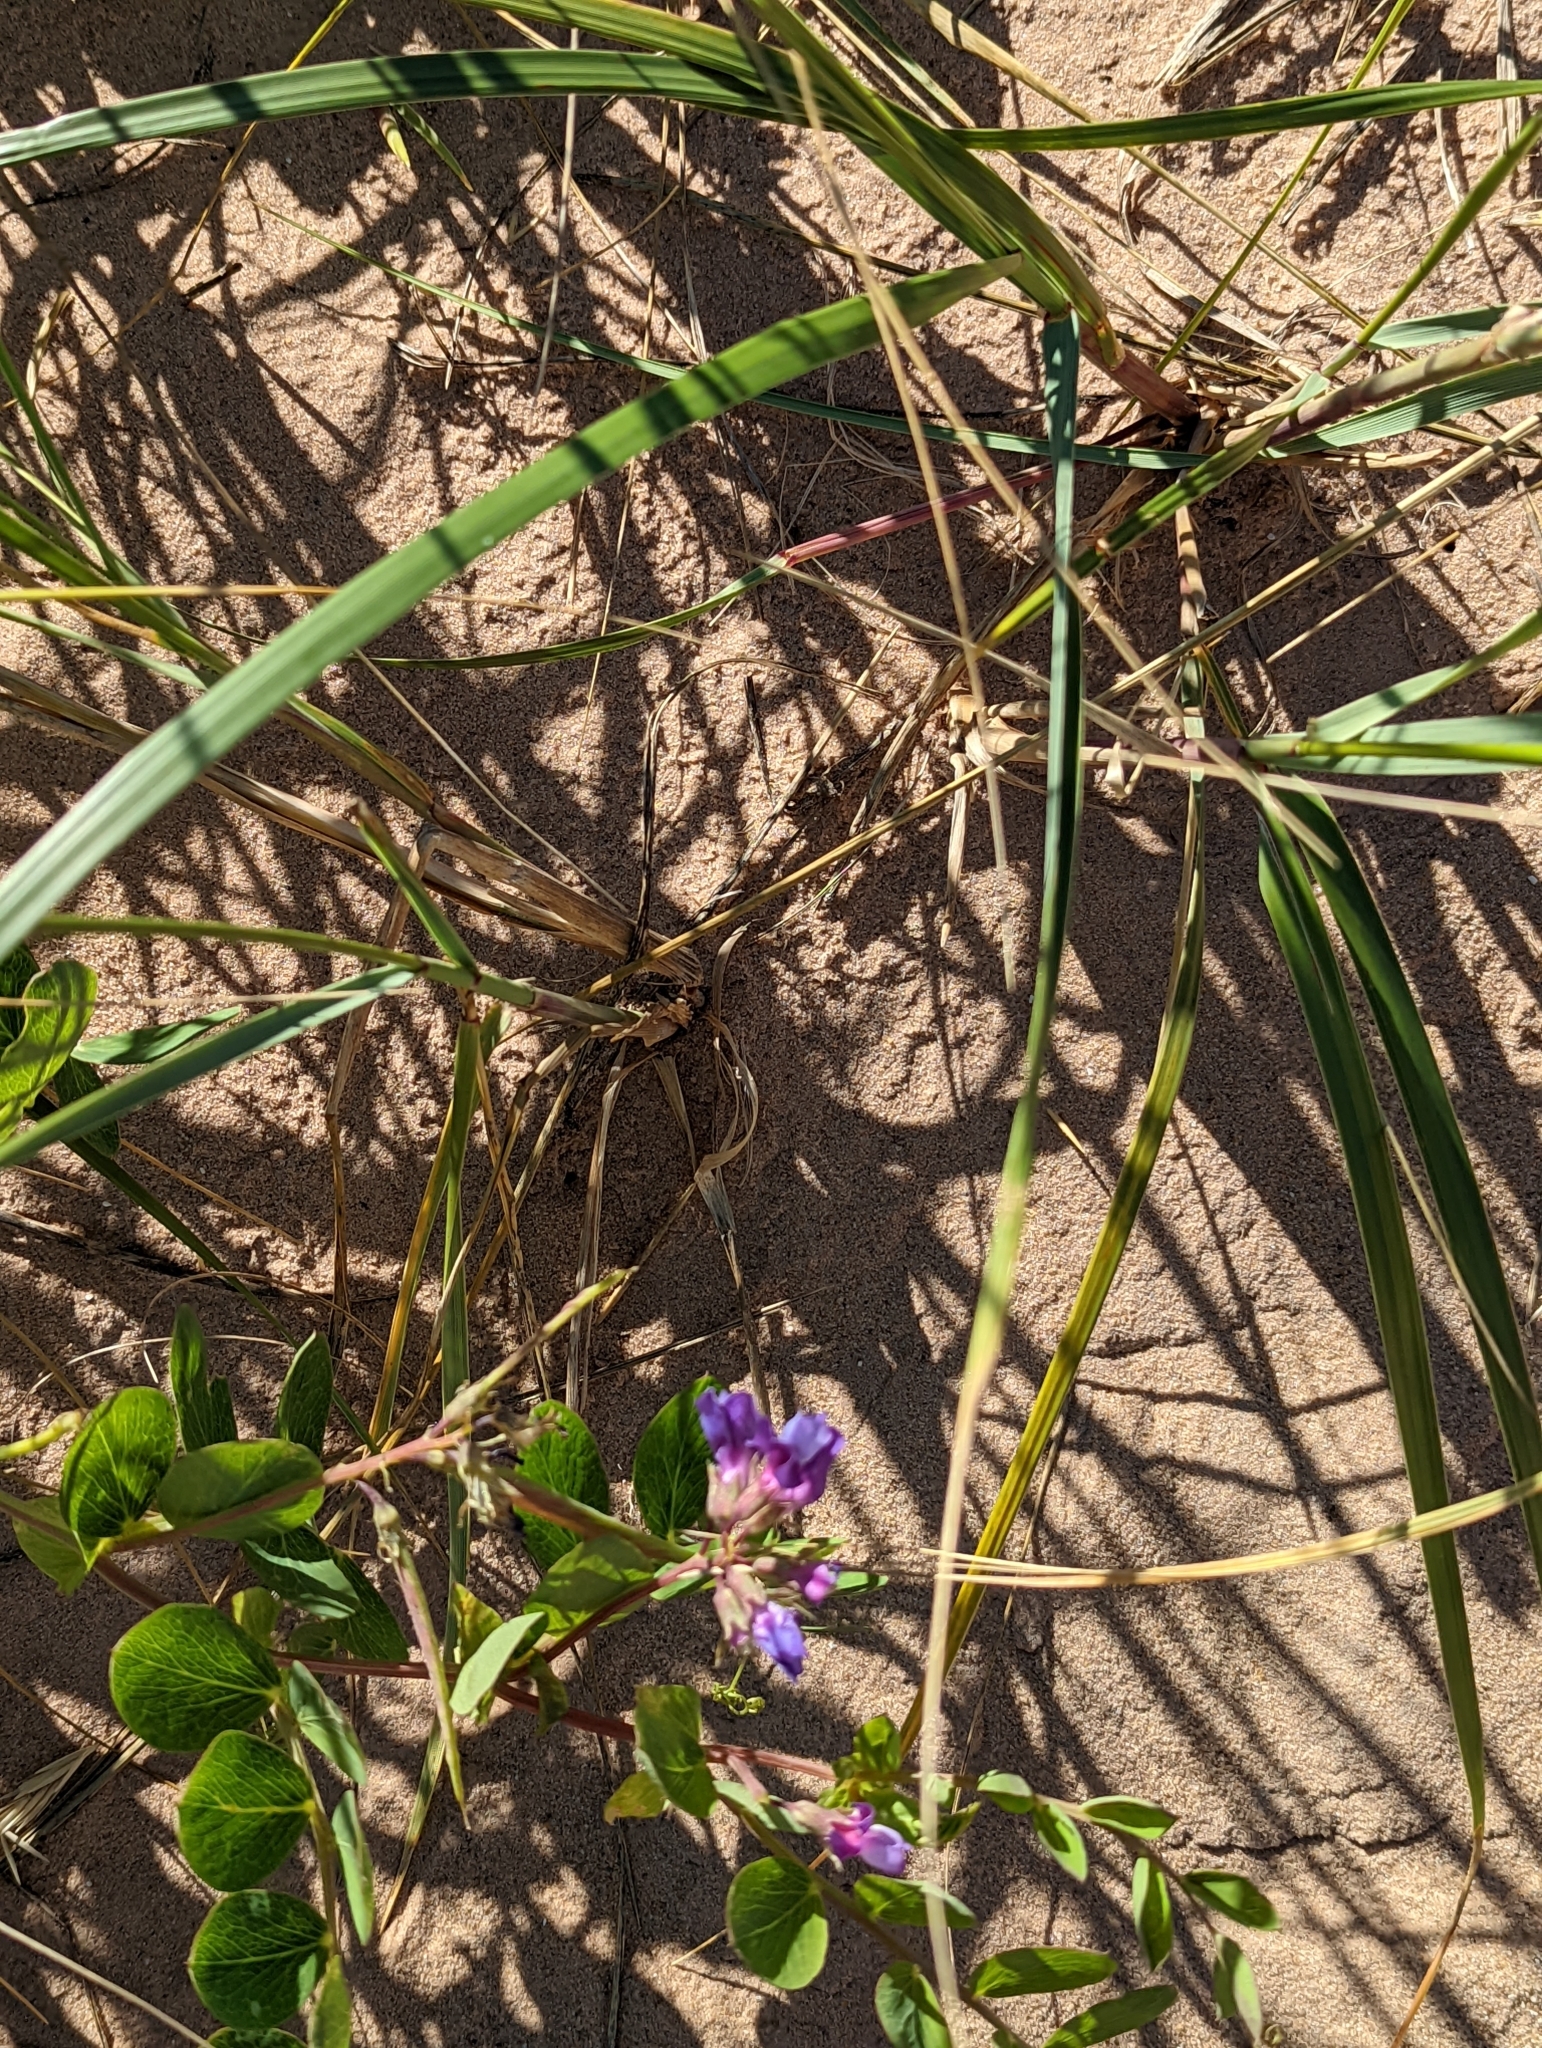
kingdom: Plantae
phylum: Tracheophyta
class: Magnoliopsida
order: Fabales
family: Fabaceae
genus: Lathyrus
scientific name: Lathyrus japonicus
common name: Sea pea
